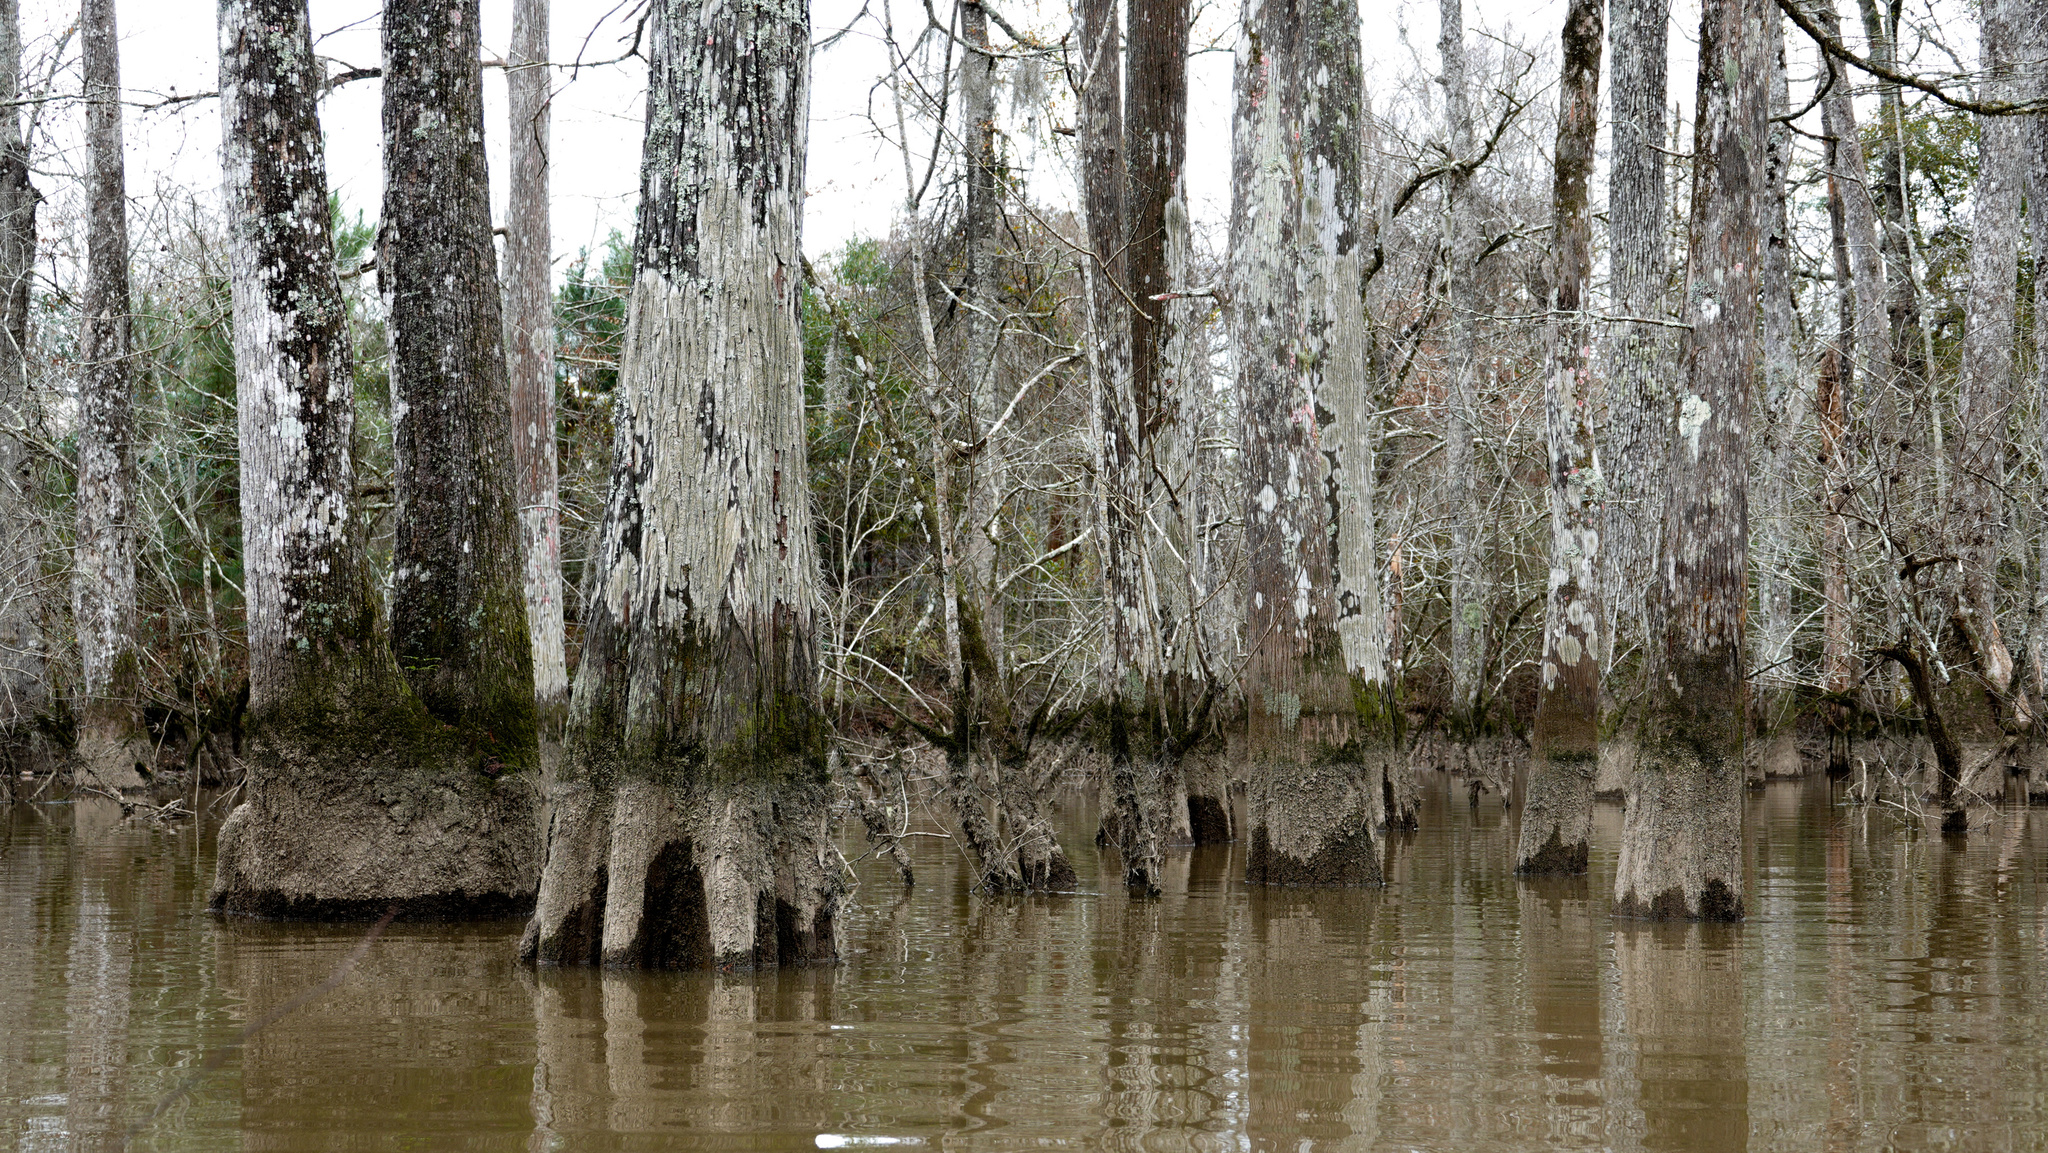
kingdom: Plantae
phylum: Tracheophyta
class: Pinopsida
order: Pinales
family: Cupressaceae
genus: Taxodium
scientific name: Taxodium distichum
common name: Bald cypress
